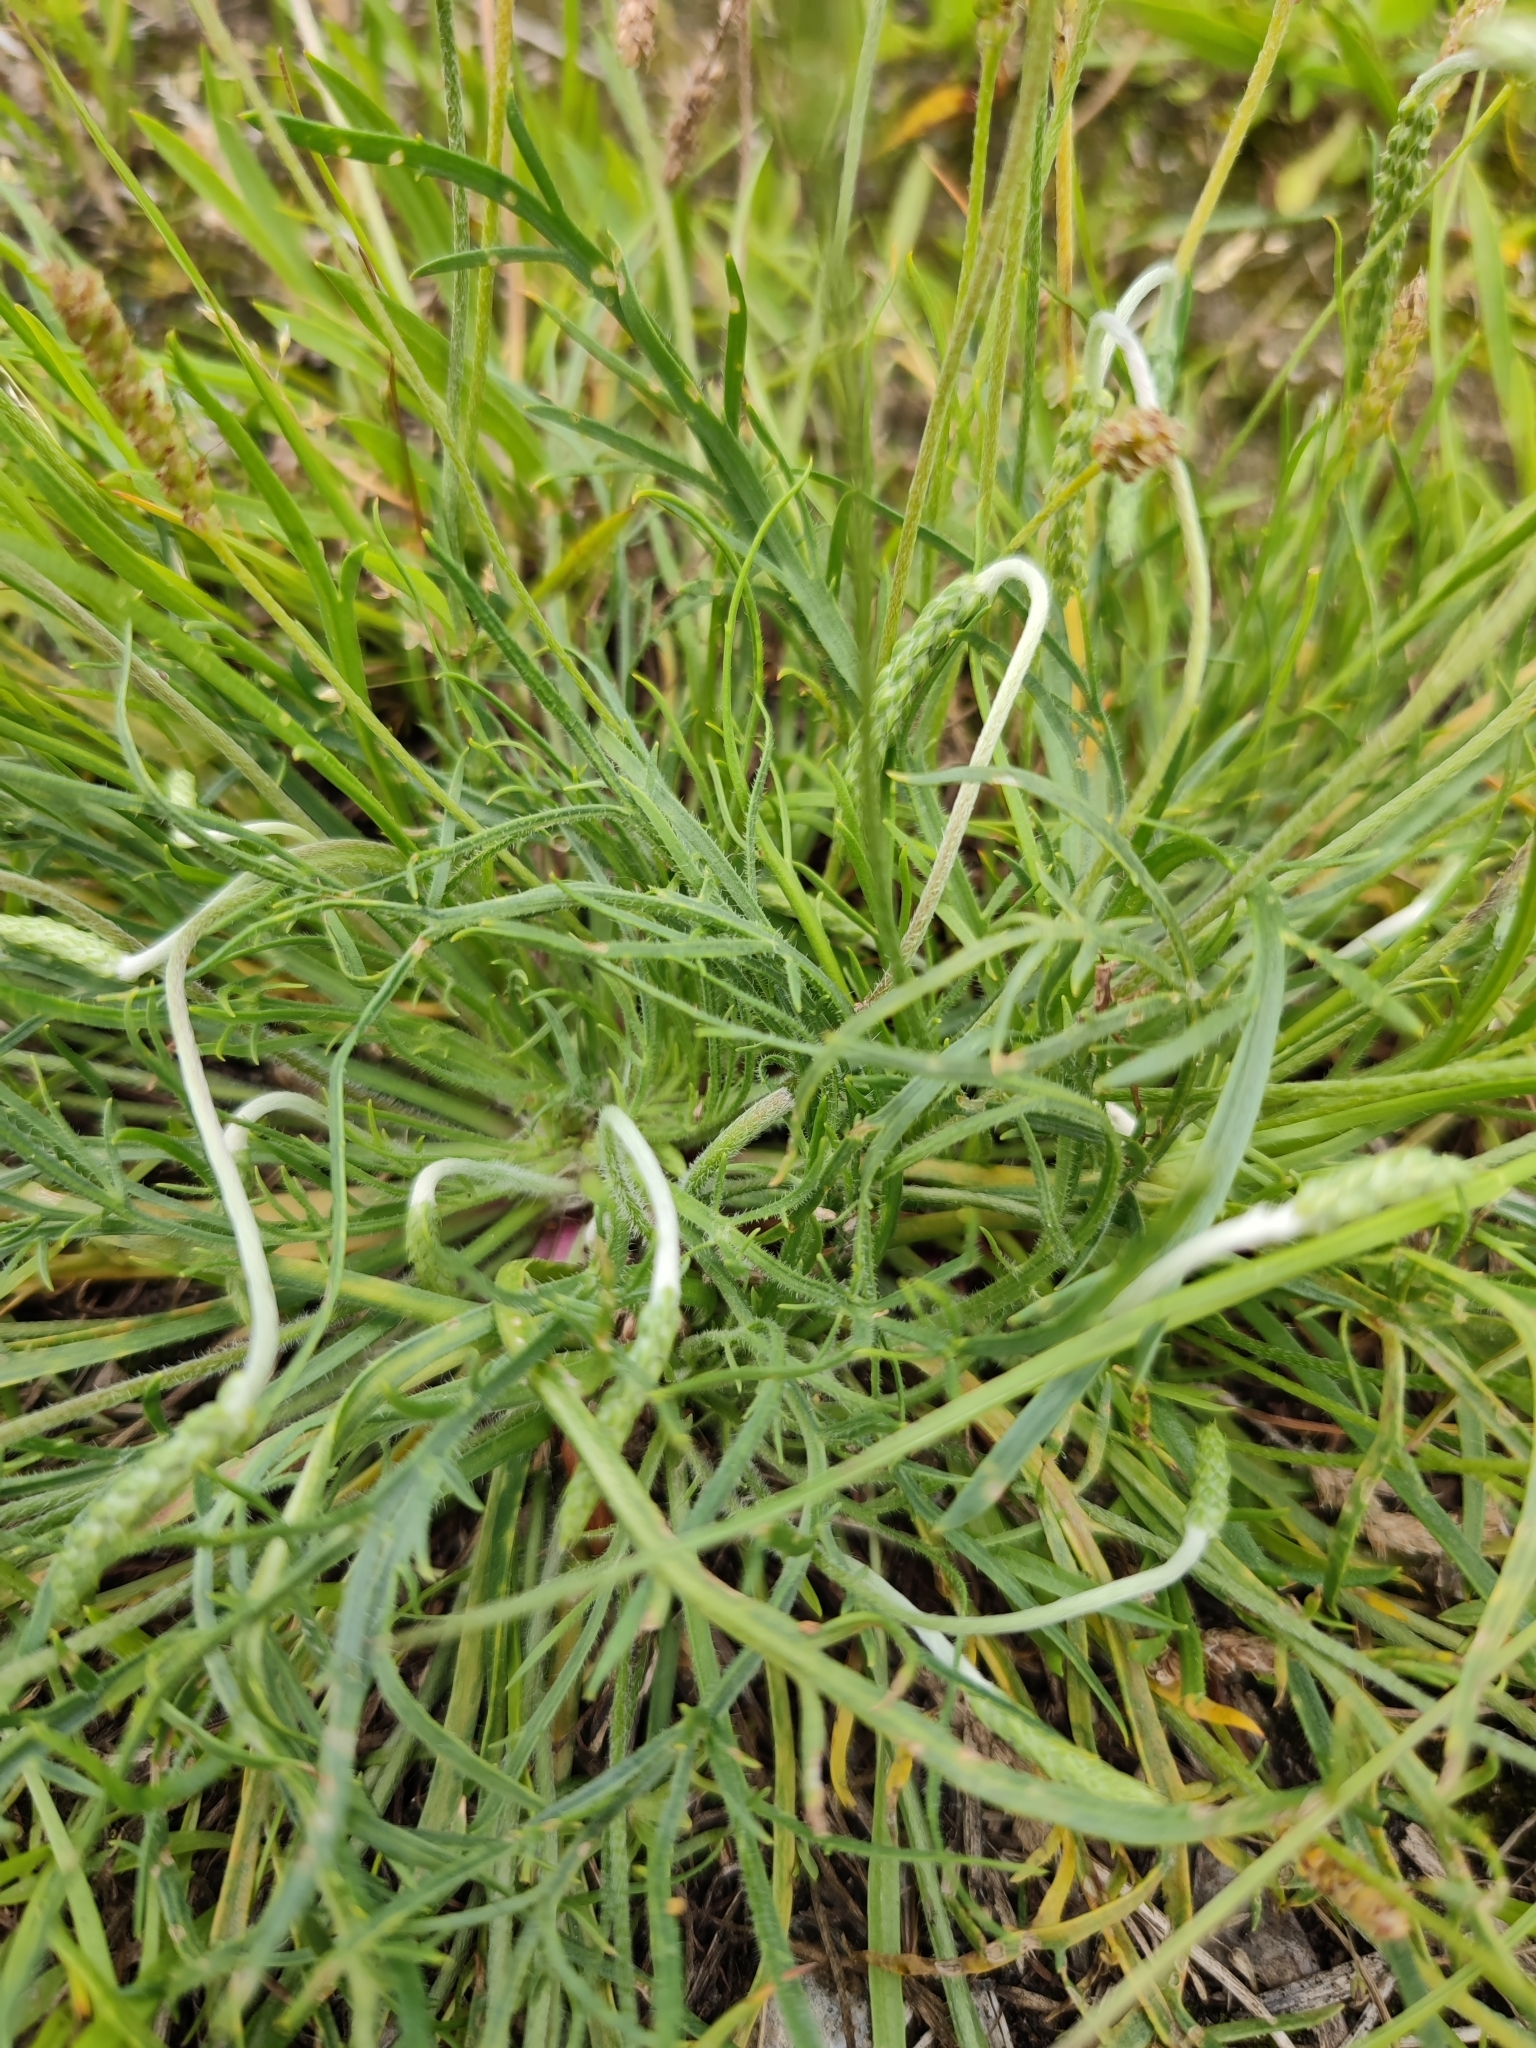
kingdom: Plantae
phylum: Tracheophyta
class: Magnoliopsida
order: Lamiales
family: Plantaginaceae
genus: Plantago
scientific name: Plantago coronopus
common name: Buck's-horn plantain
